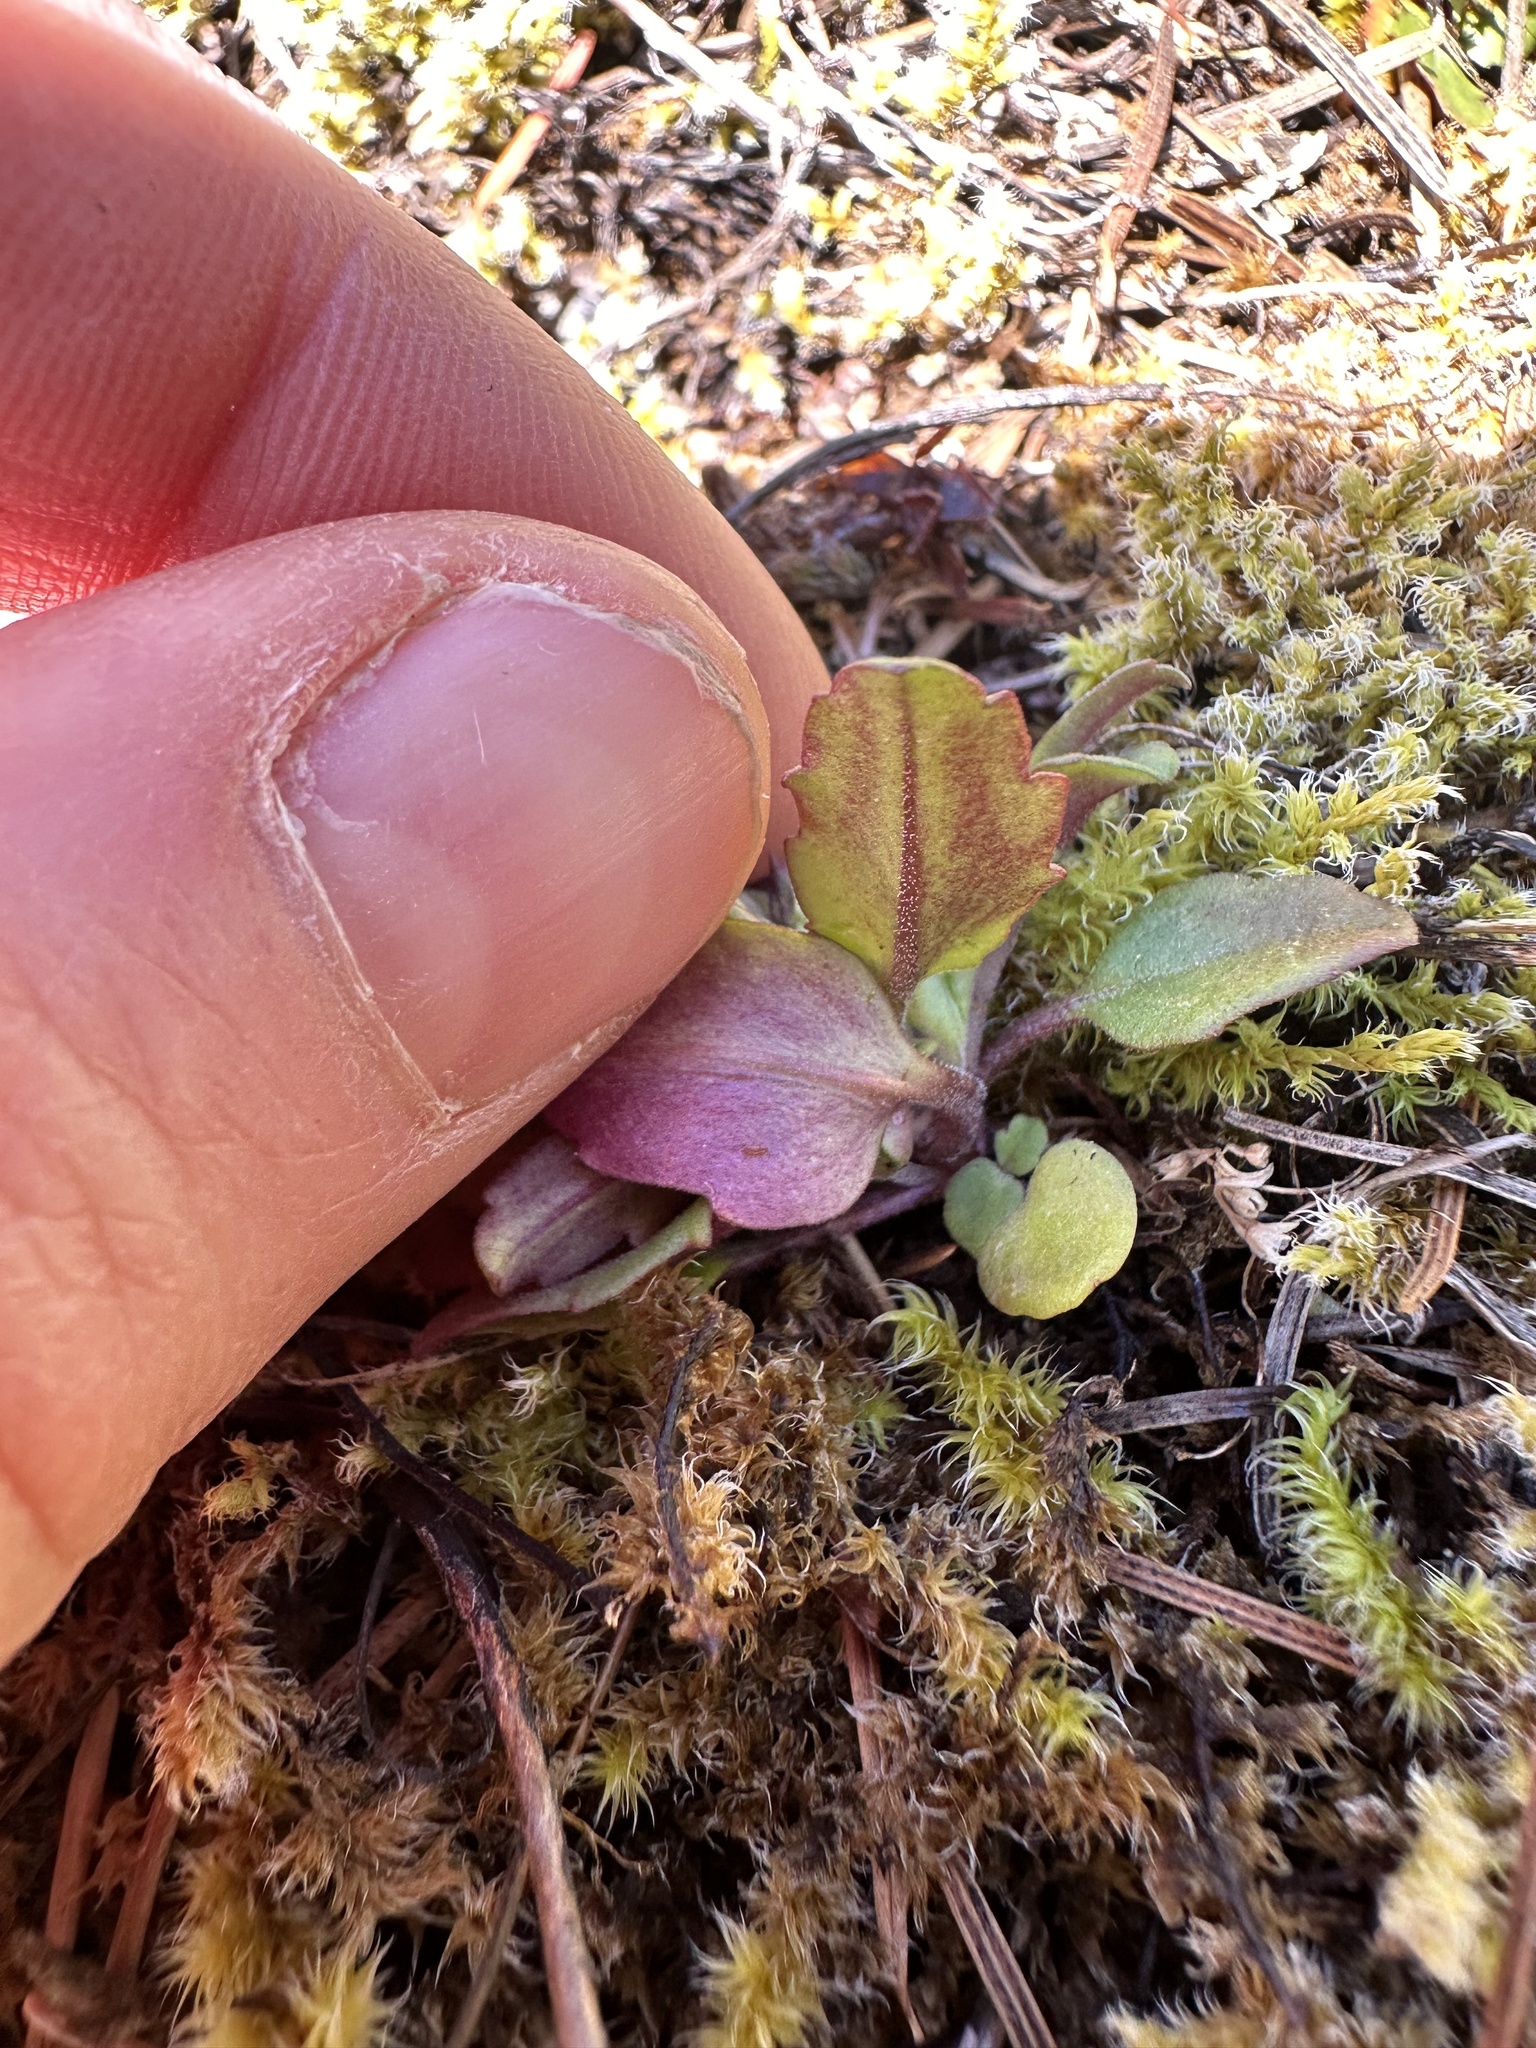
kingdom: Plantae
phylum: Tracheophyta
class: Magnoliopsida
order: Lamiales
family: Plantaginaceae
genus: Collinsia
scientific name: Collinsia grandiflora
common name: Large-flower blue-eyed-mary
